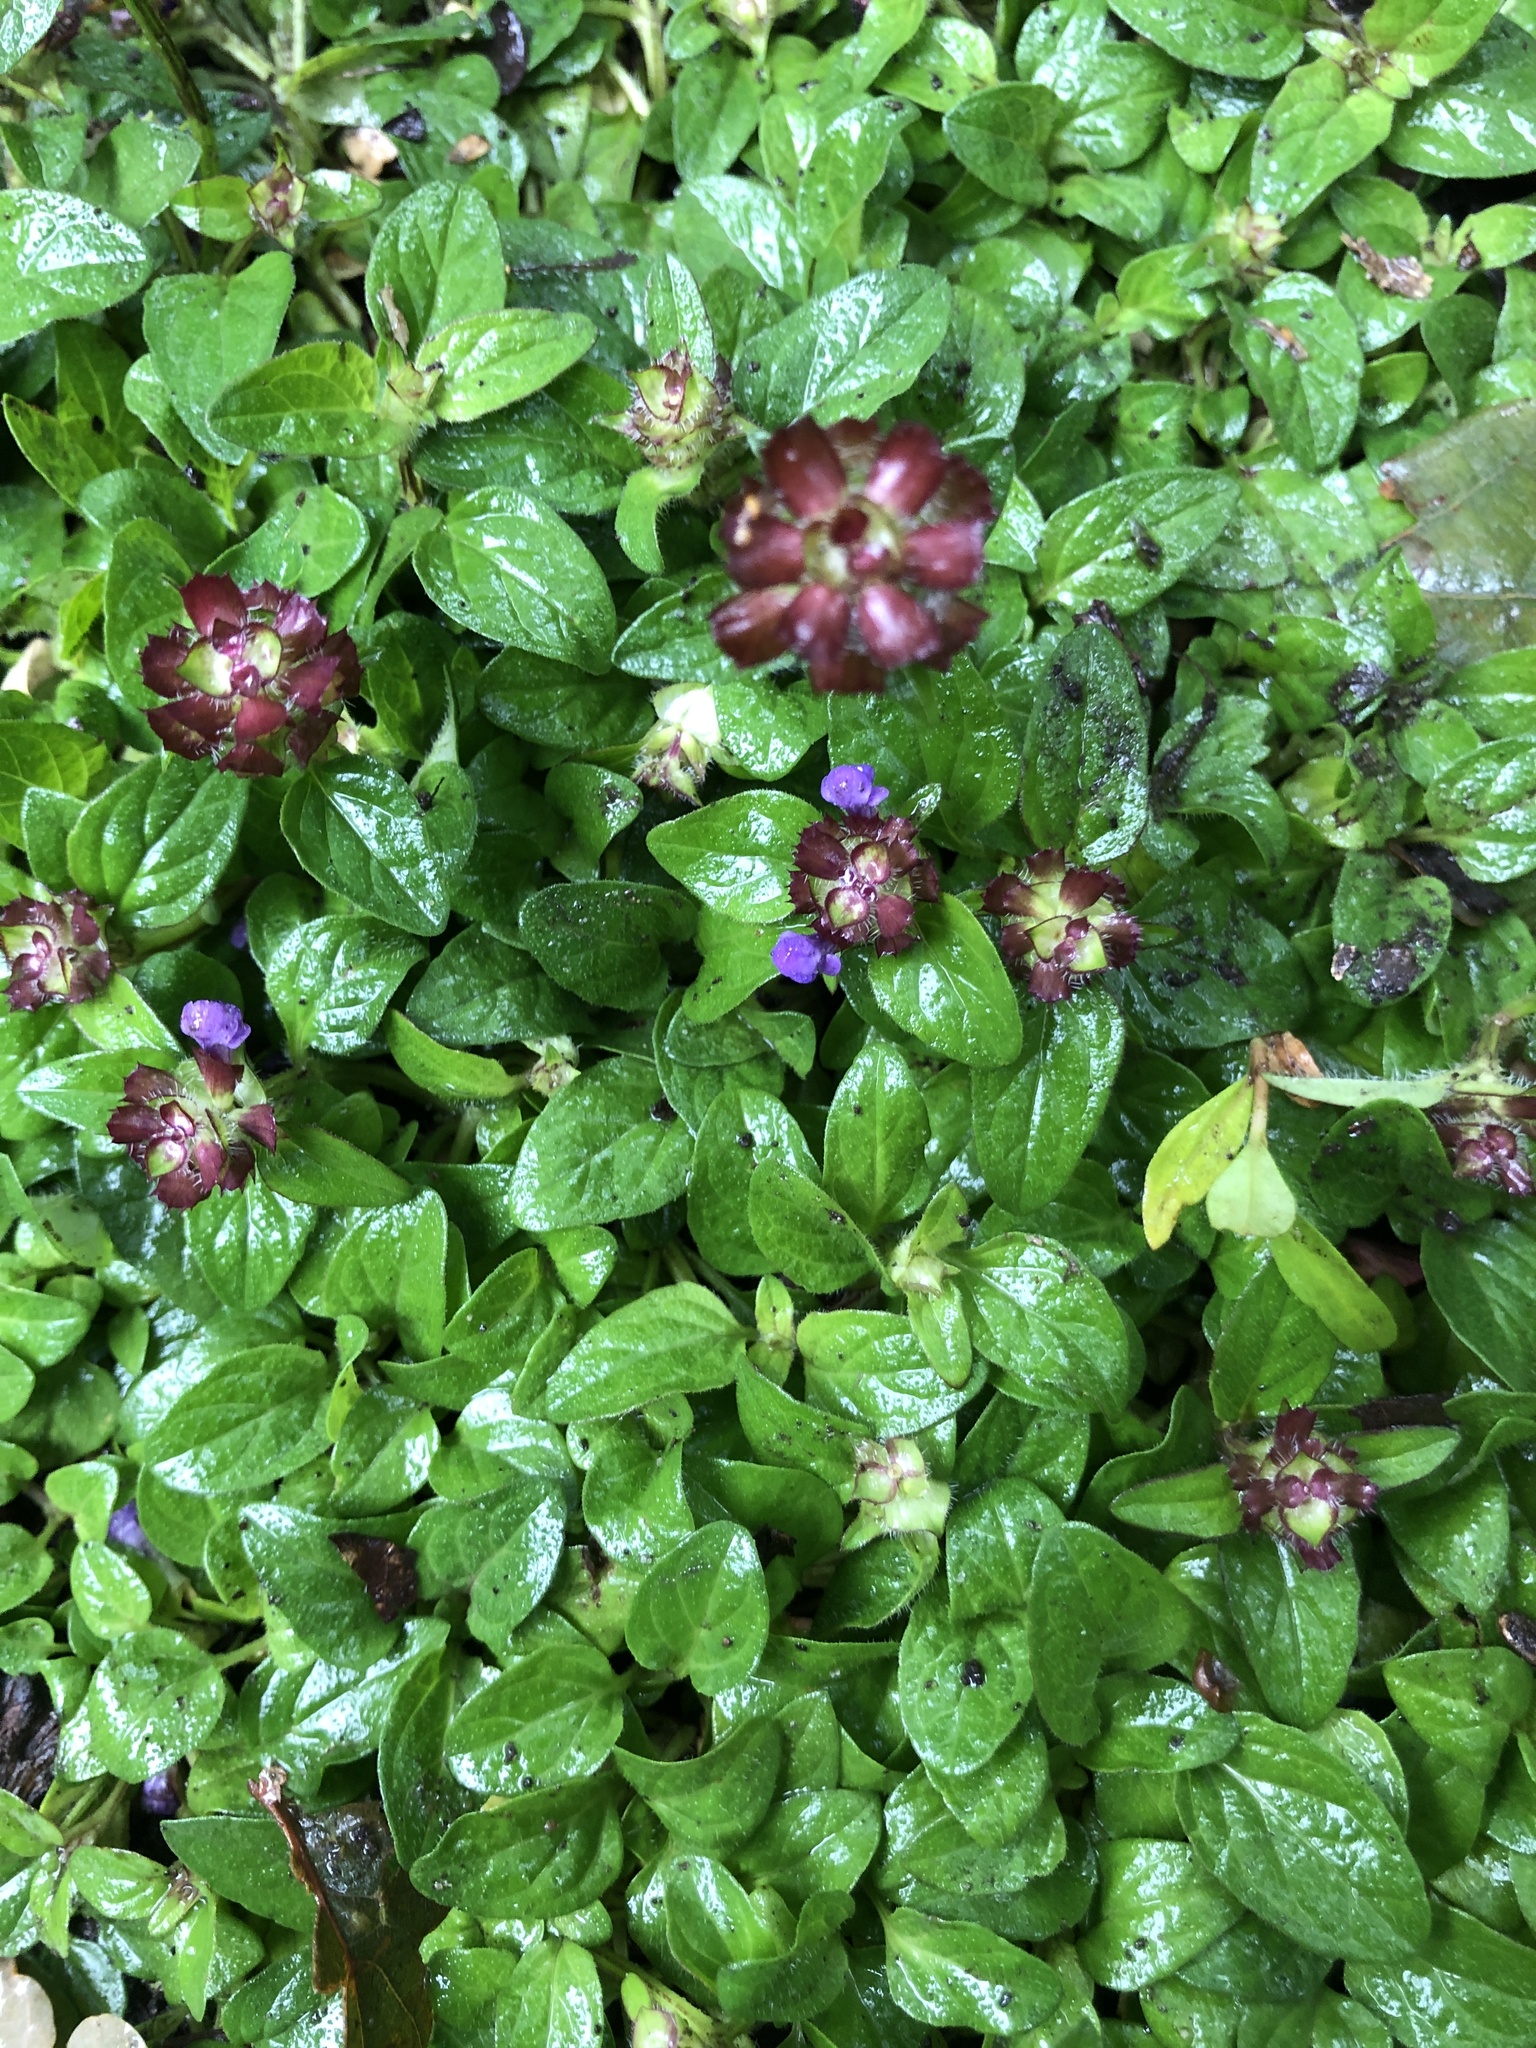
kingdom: Plantae
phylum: Tracheophyta
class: Magnoliopsida
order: Lamiales
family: Lamiaceae
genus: Prunella
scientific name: Prunella vulgaris
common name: Heal-all
